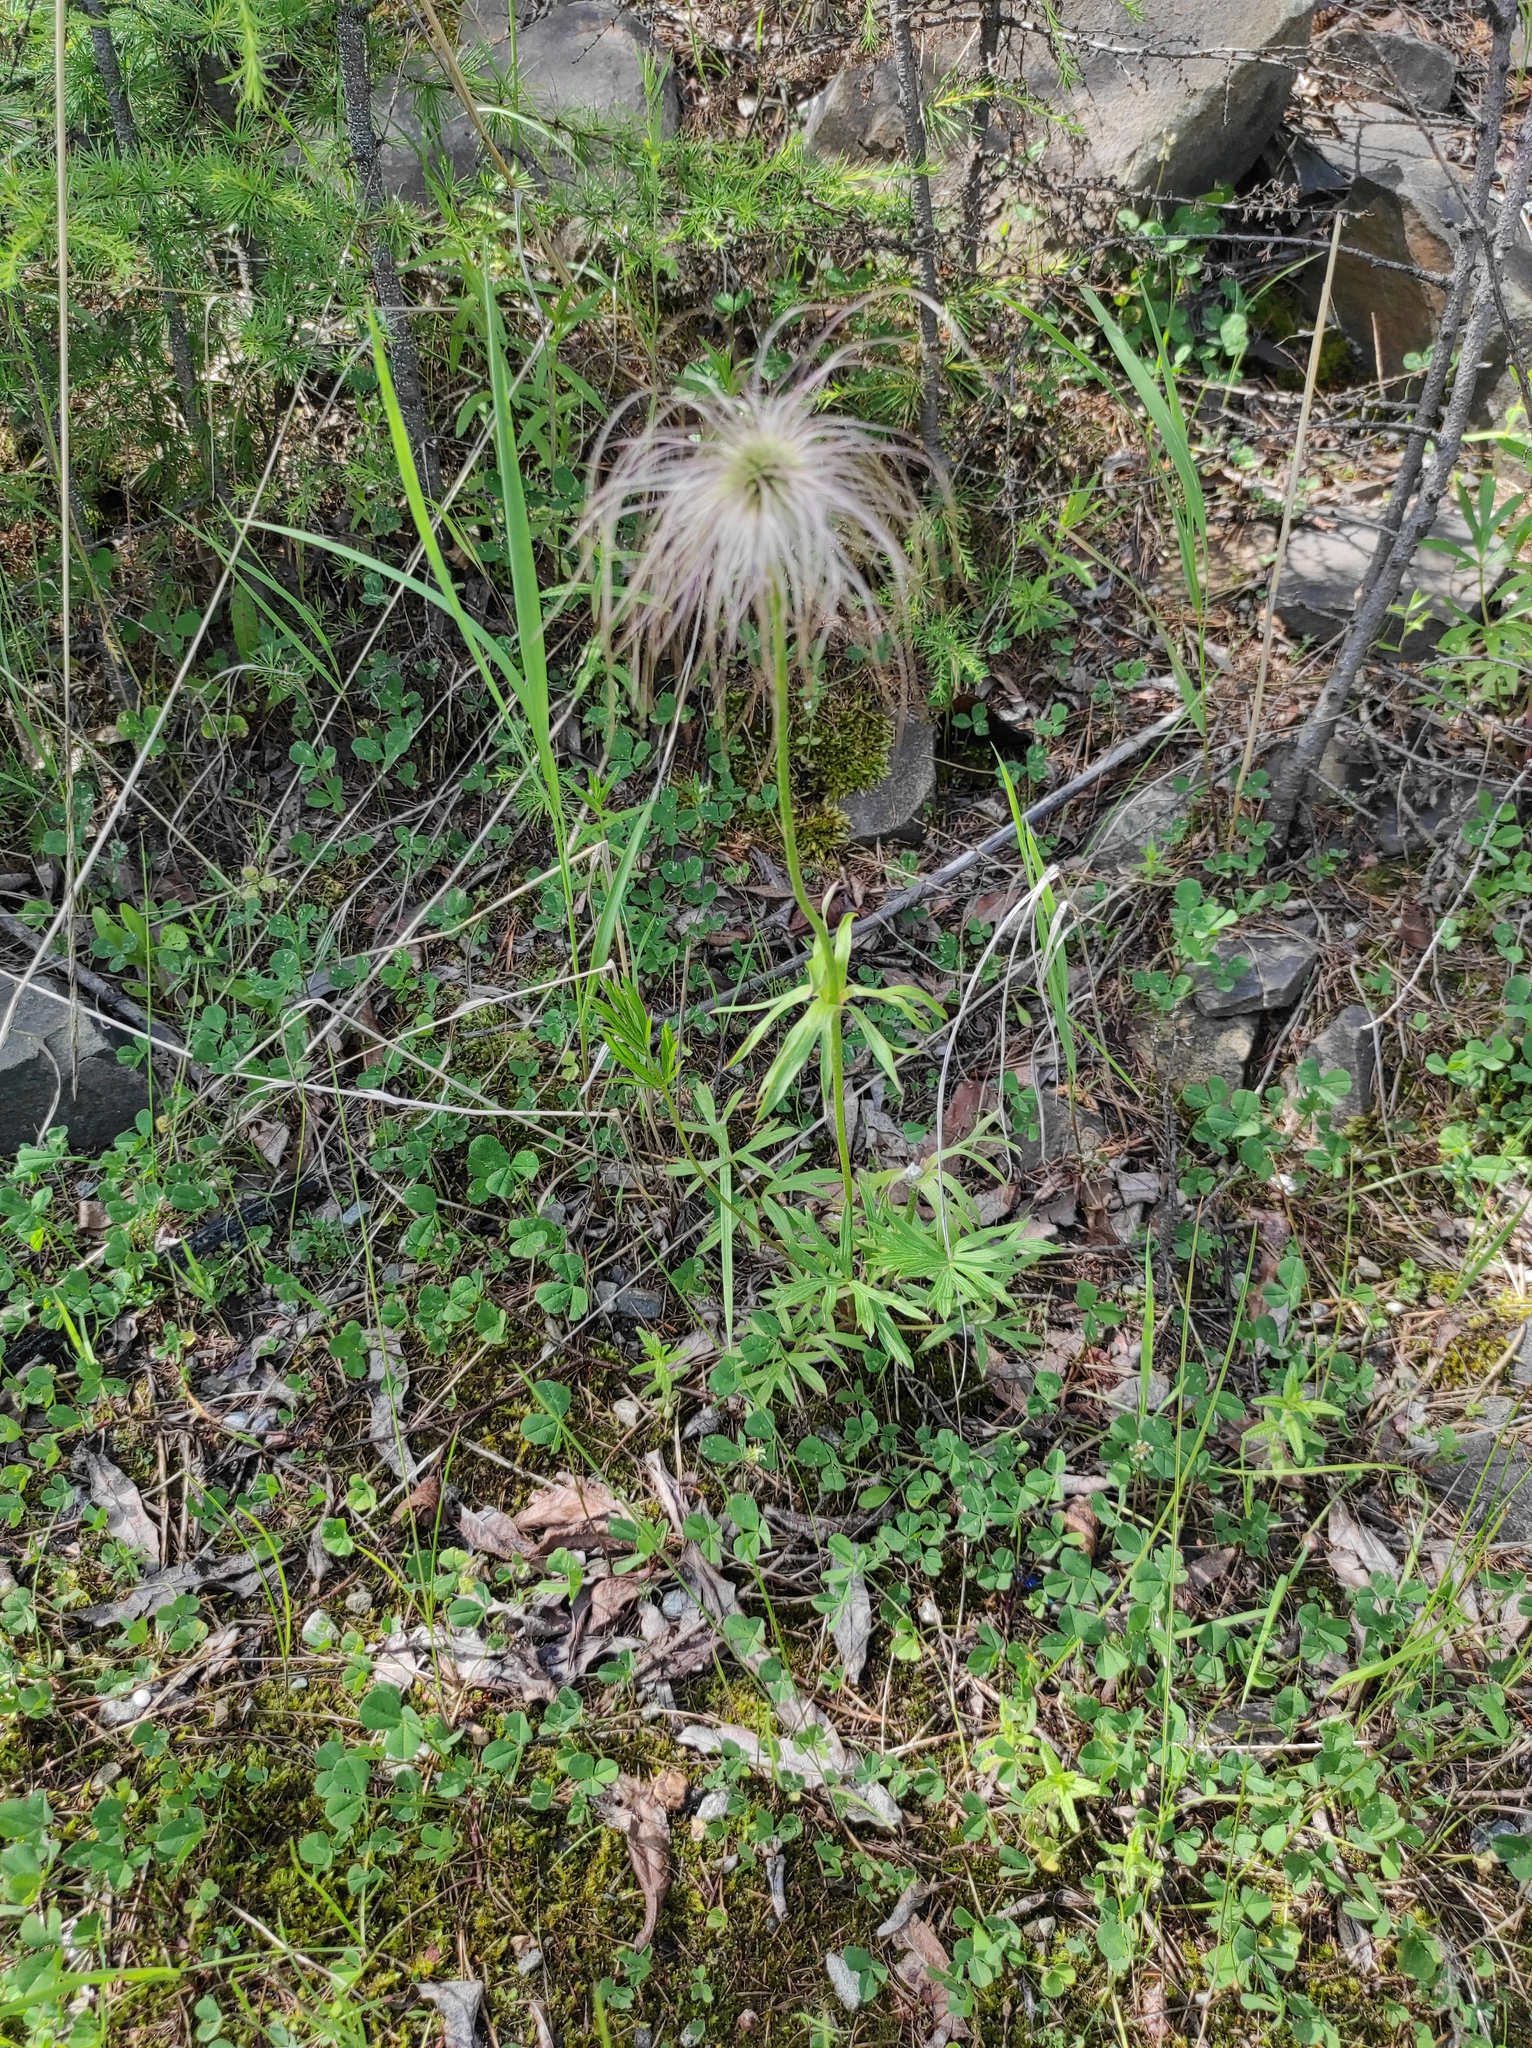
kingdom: Plantae
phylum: Tracheophyta
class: Magnoliopsida
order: Ranunculales
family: Ranunculaceae
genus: Pulsatilla
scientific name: Pulsatilla dahurica
